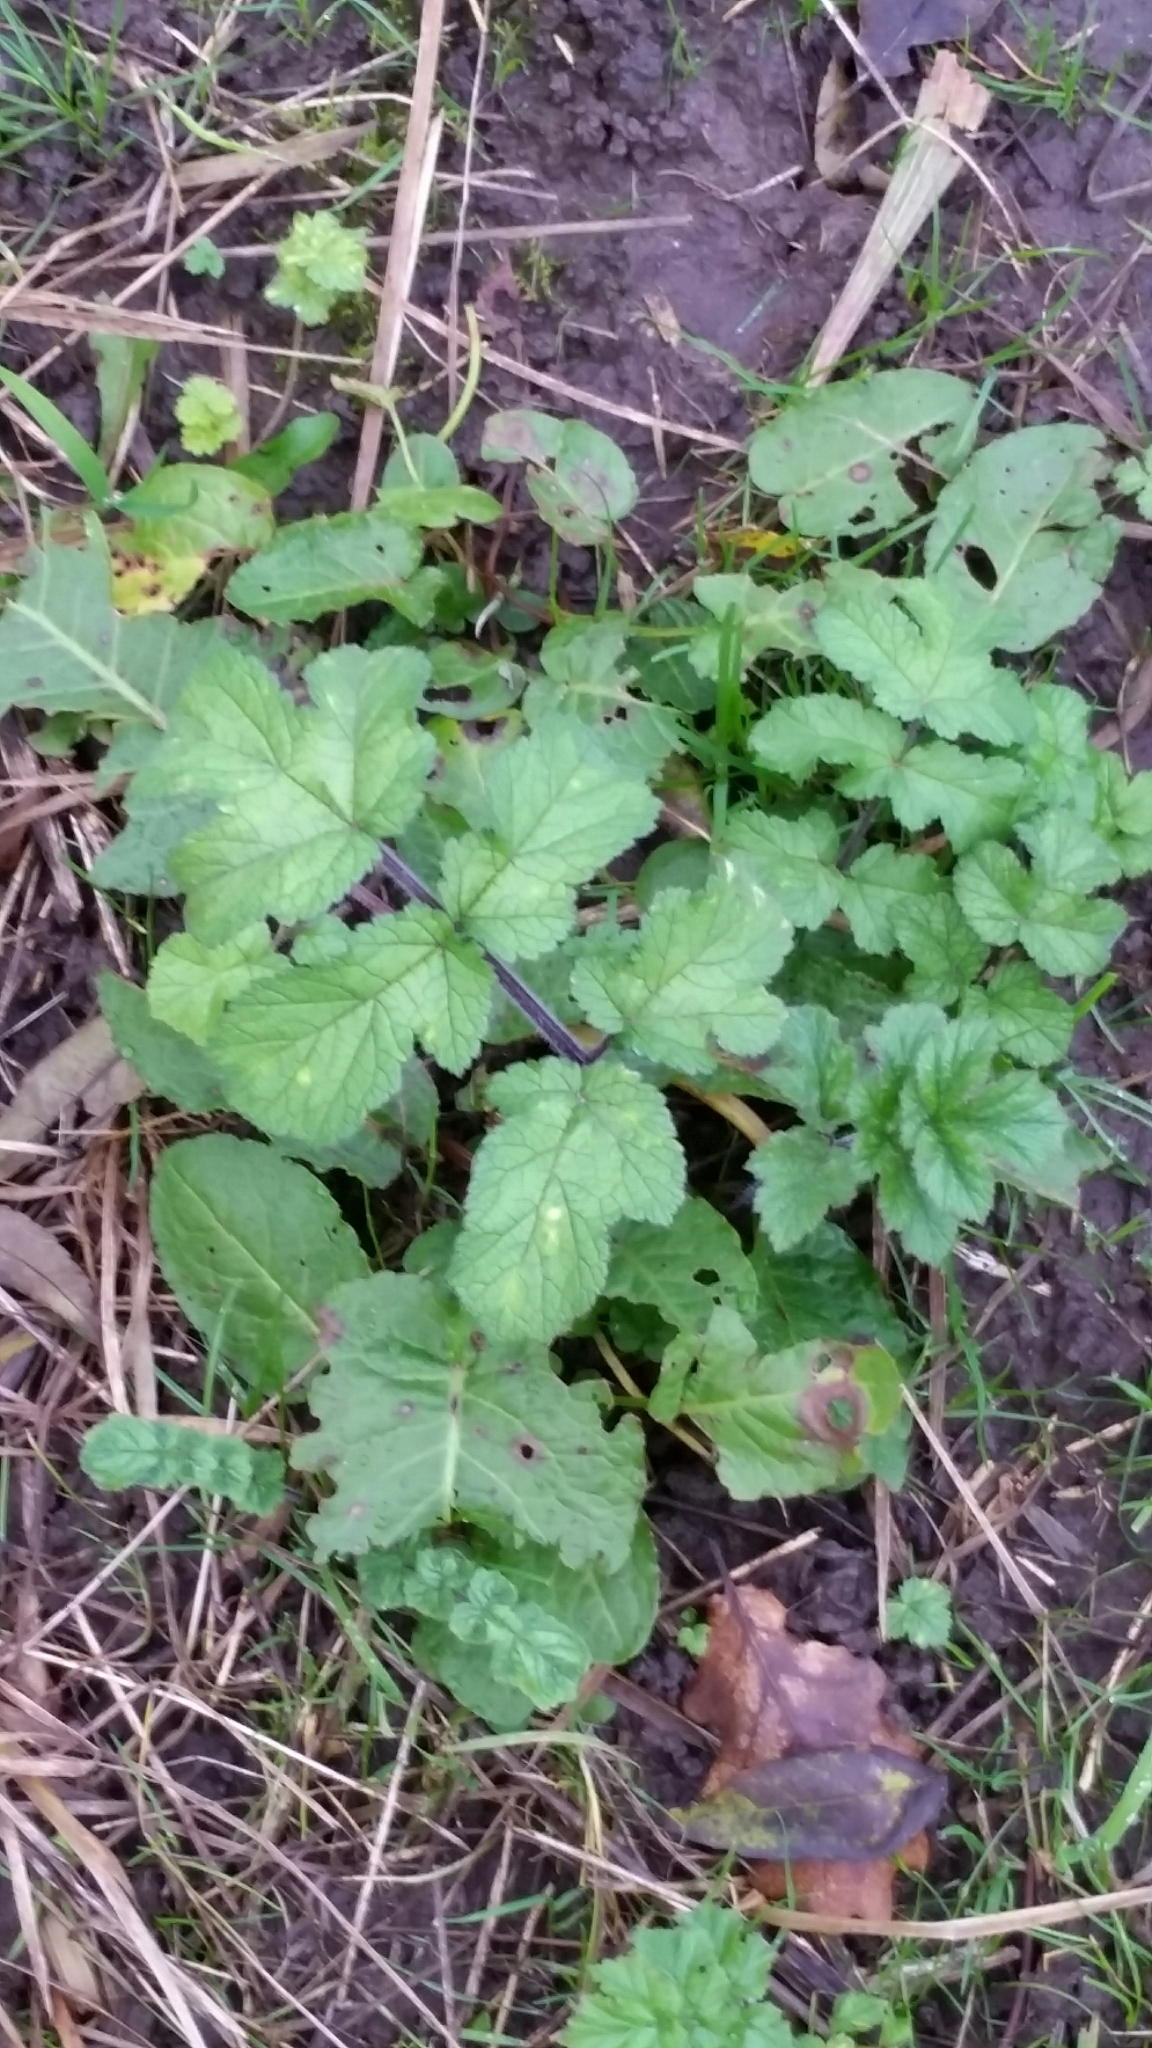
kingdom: Plantae
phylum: Tracheophyta
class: Magnoliopsida
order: Apiales
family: Apiaceae
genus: Heracleum
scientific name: Heracleum sphondylium
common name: Hogweed
